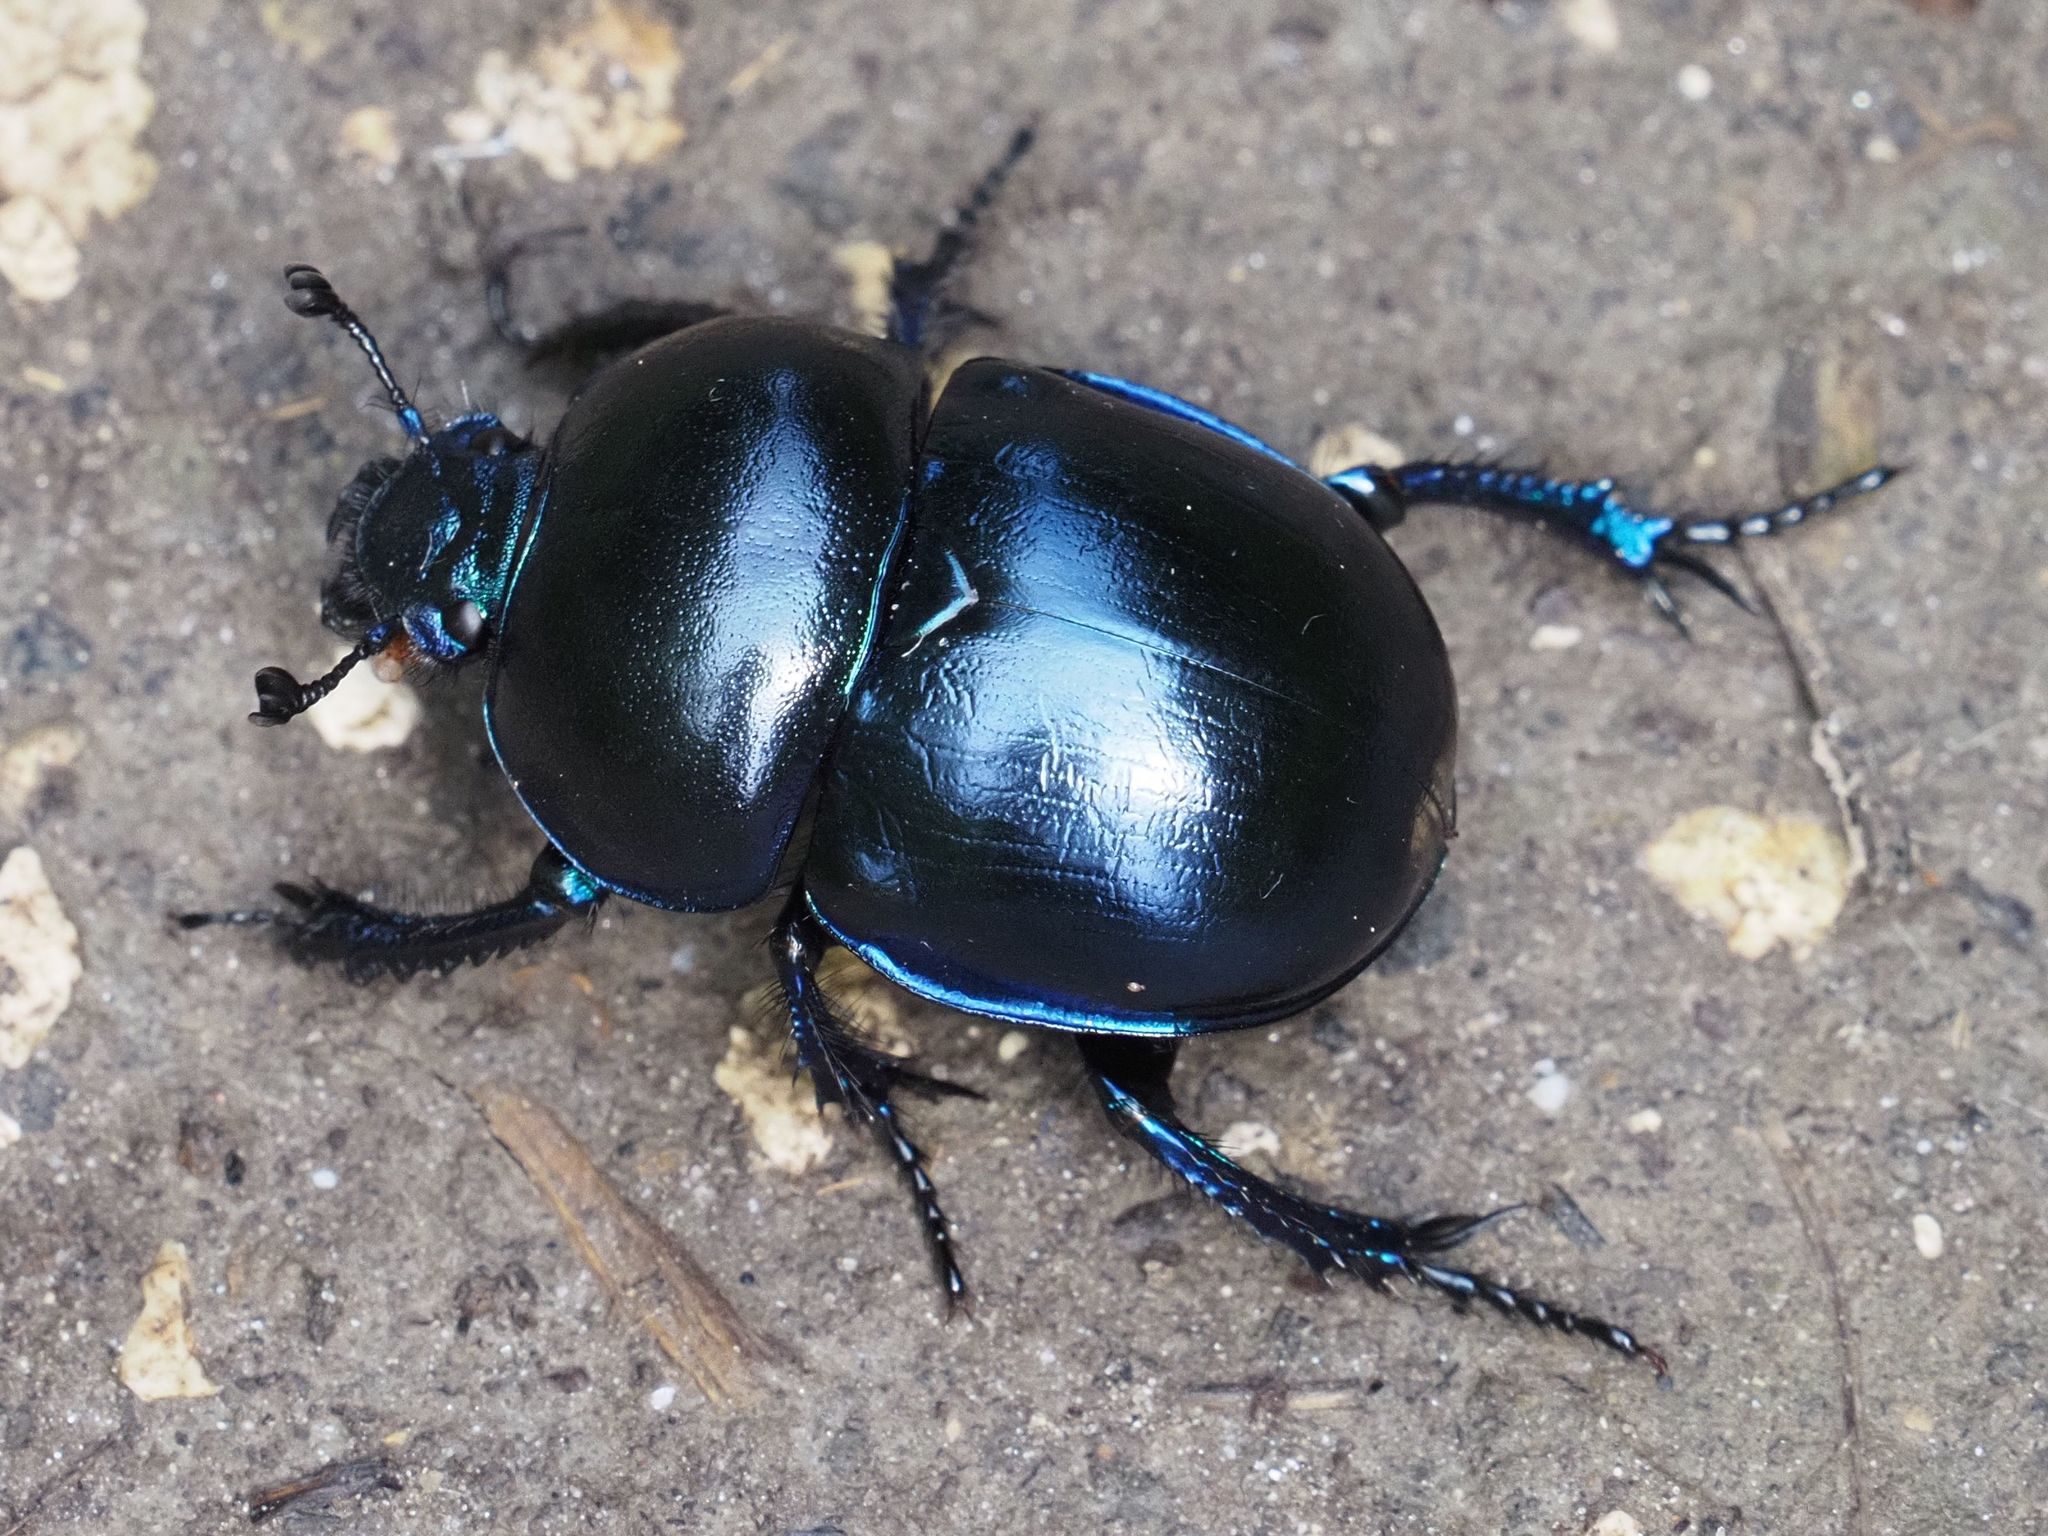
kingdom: Animalia
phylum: Arthropoda
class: Insecta
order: Coleoptera
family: Geotrupidae
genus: Trypocopris
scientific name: Trypocopris vernalis
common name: Spring dumbledor
